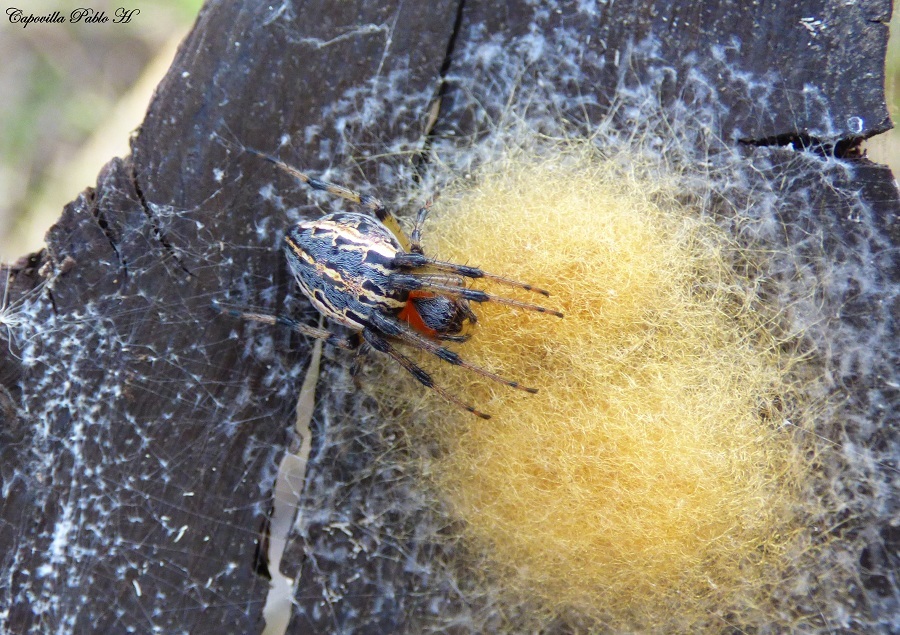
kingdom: Animalia
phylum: Arthropoda
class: Arachnida
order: Araneae
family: Araneidae
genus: Alpaida
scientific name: Alpaida veniliae
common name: Orb weavers
